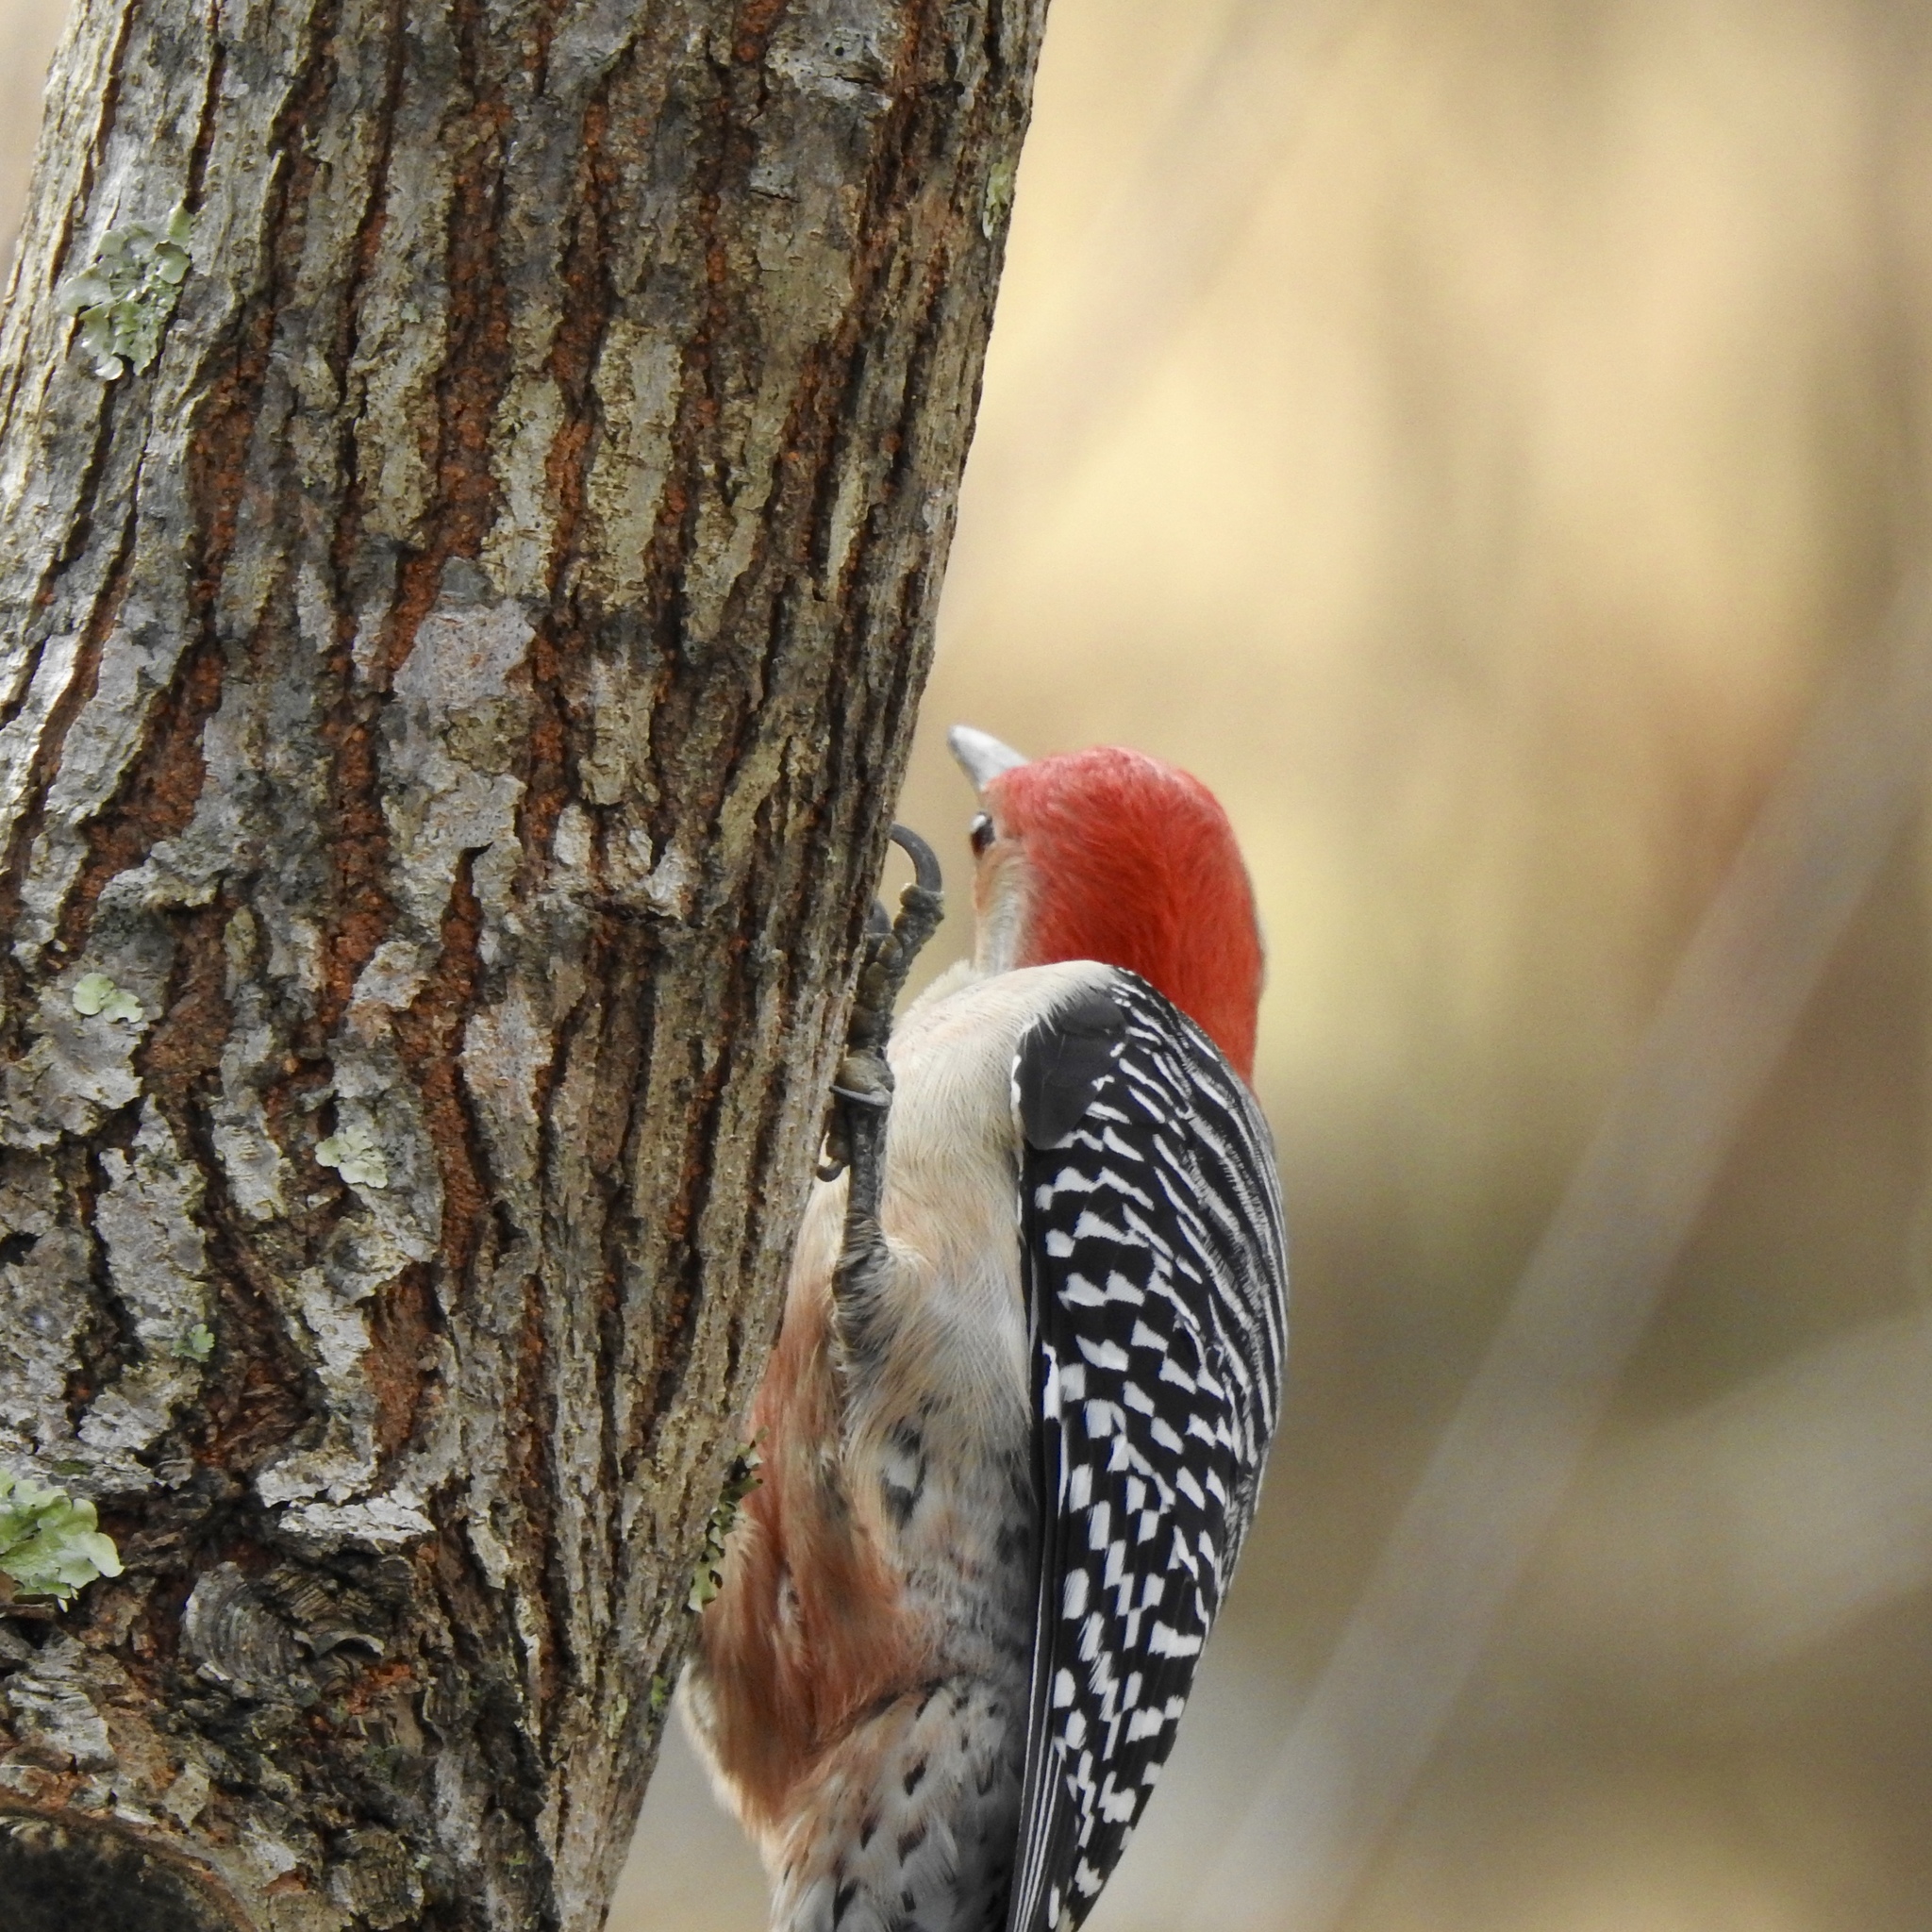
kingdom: Animalia
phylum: Chordata
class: Aves
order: Piciformes
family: Picidae
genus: Melanerpes
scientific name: Melanerpes carolinus
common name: Red-bellied woodpecker
